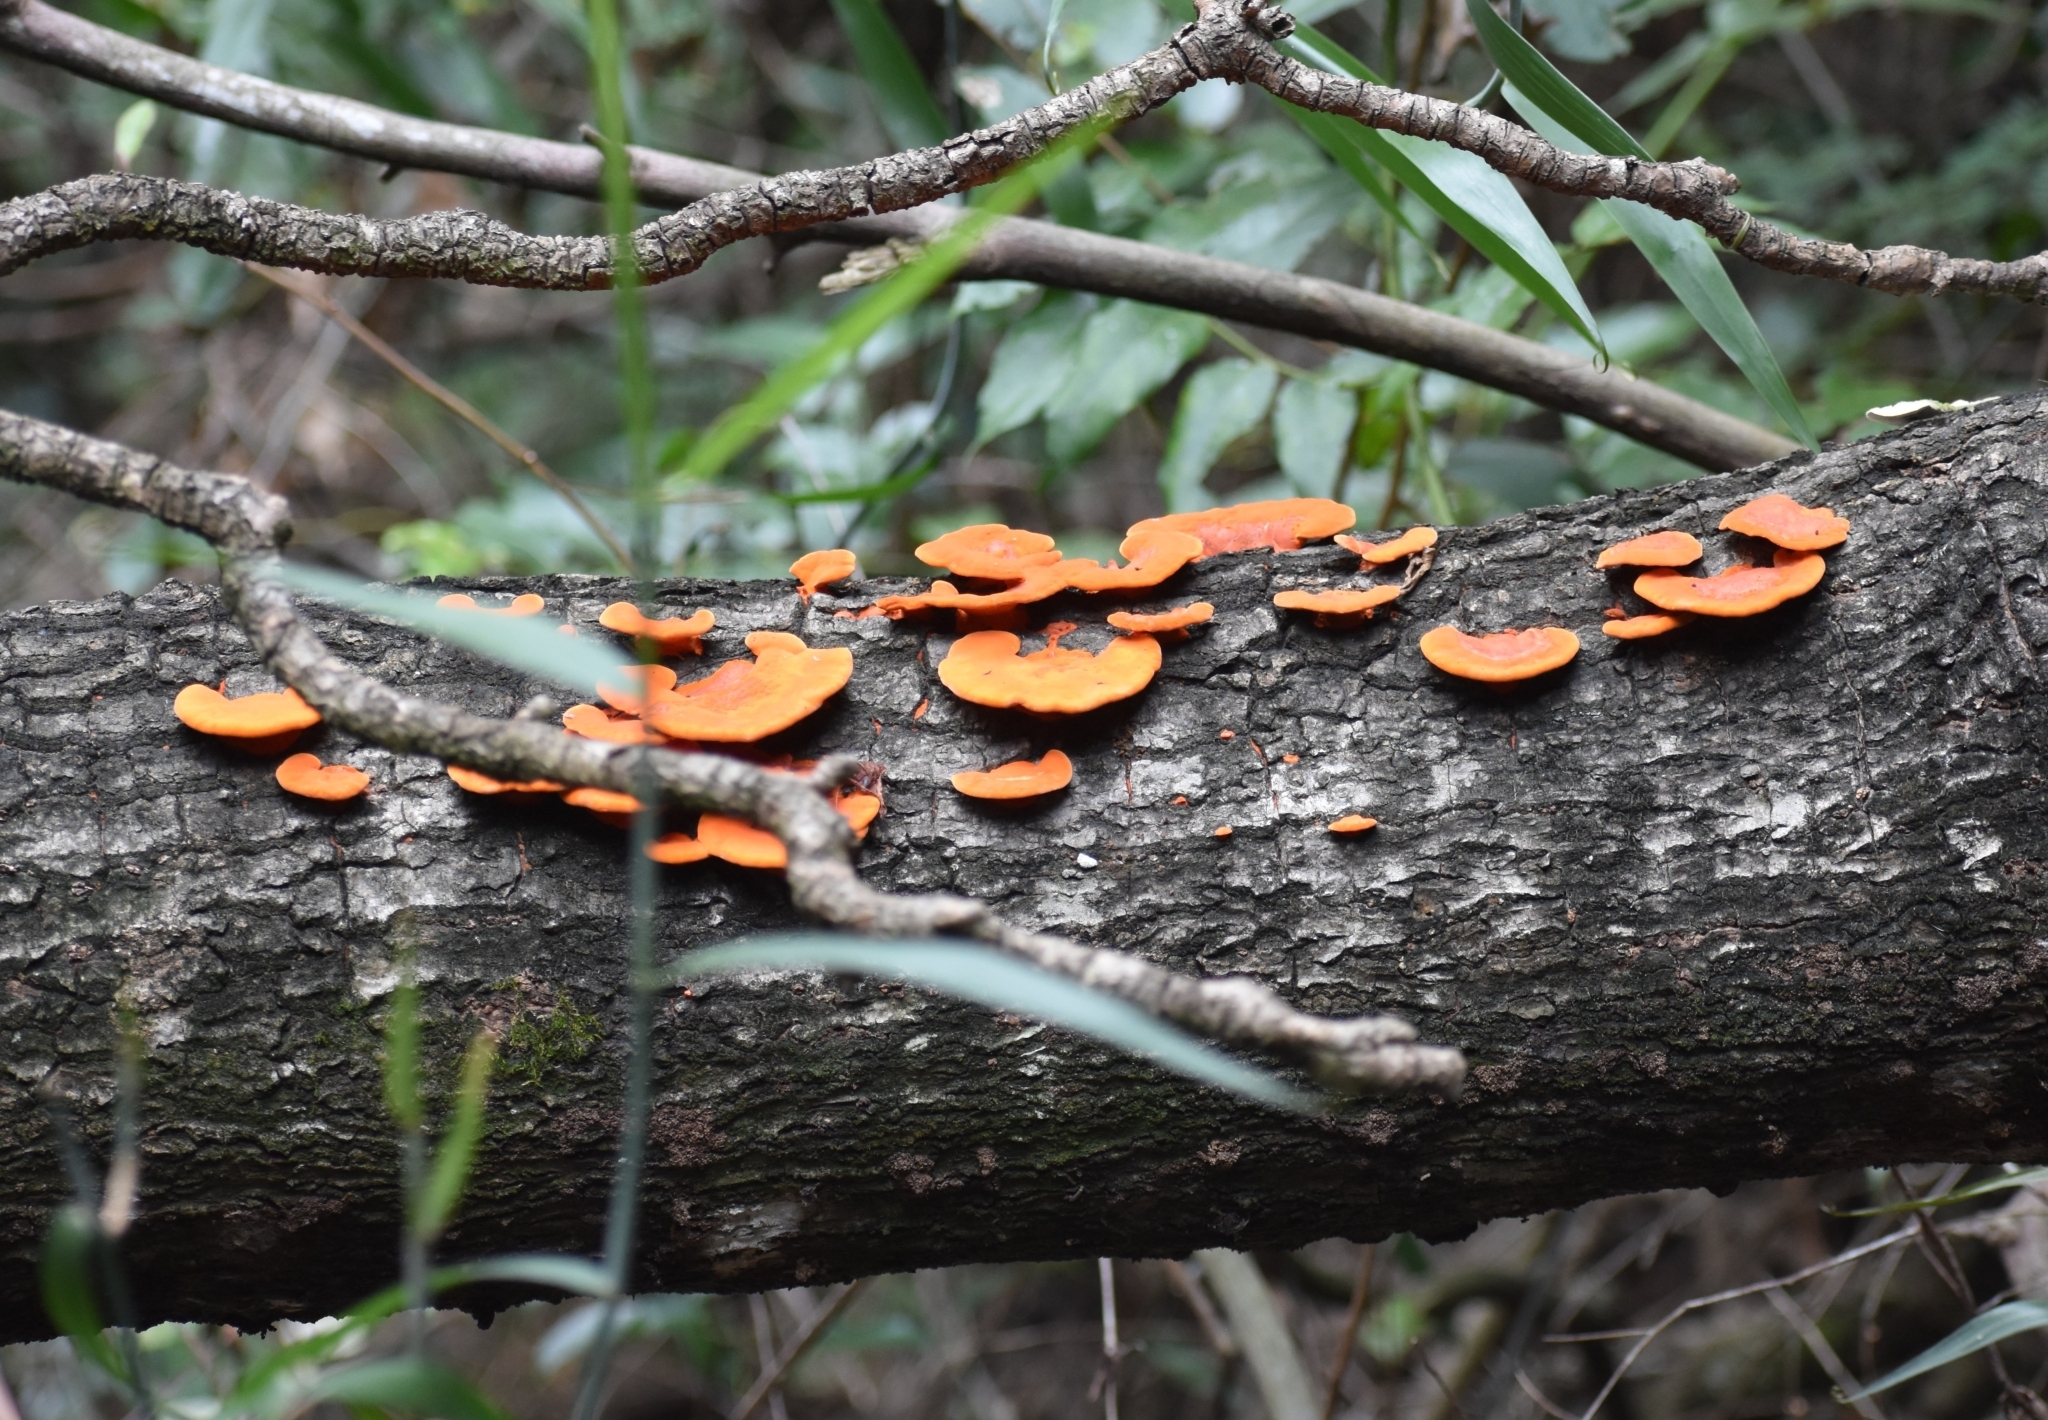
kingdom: Fungi
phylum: Basidiomycota
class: Agaricomycetes
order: Polyporales
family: Polyporaceae
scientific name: Polyporaceae
